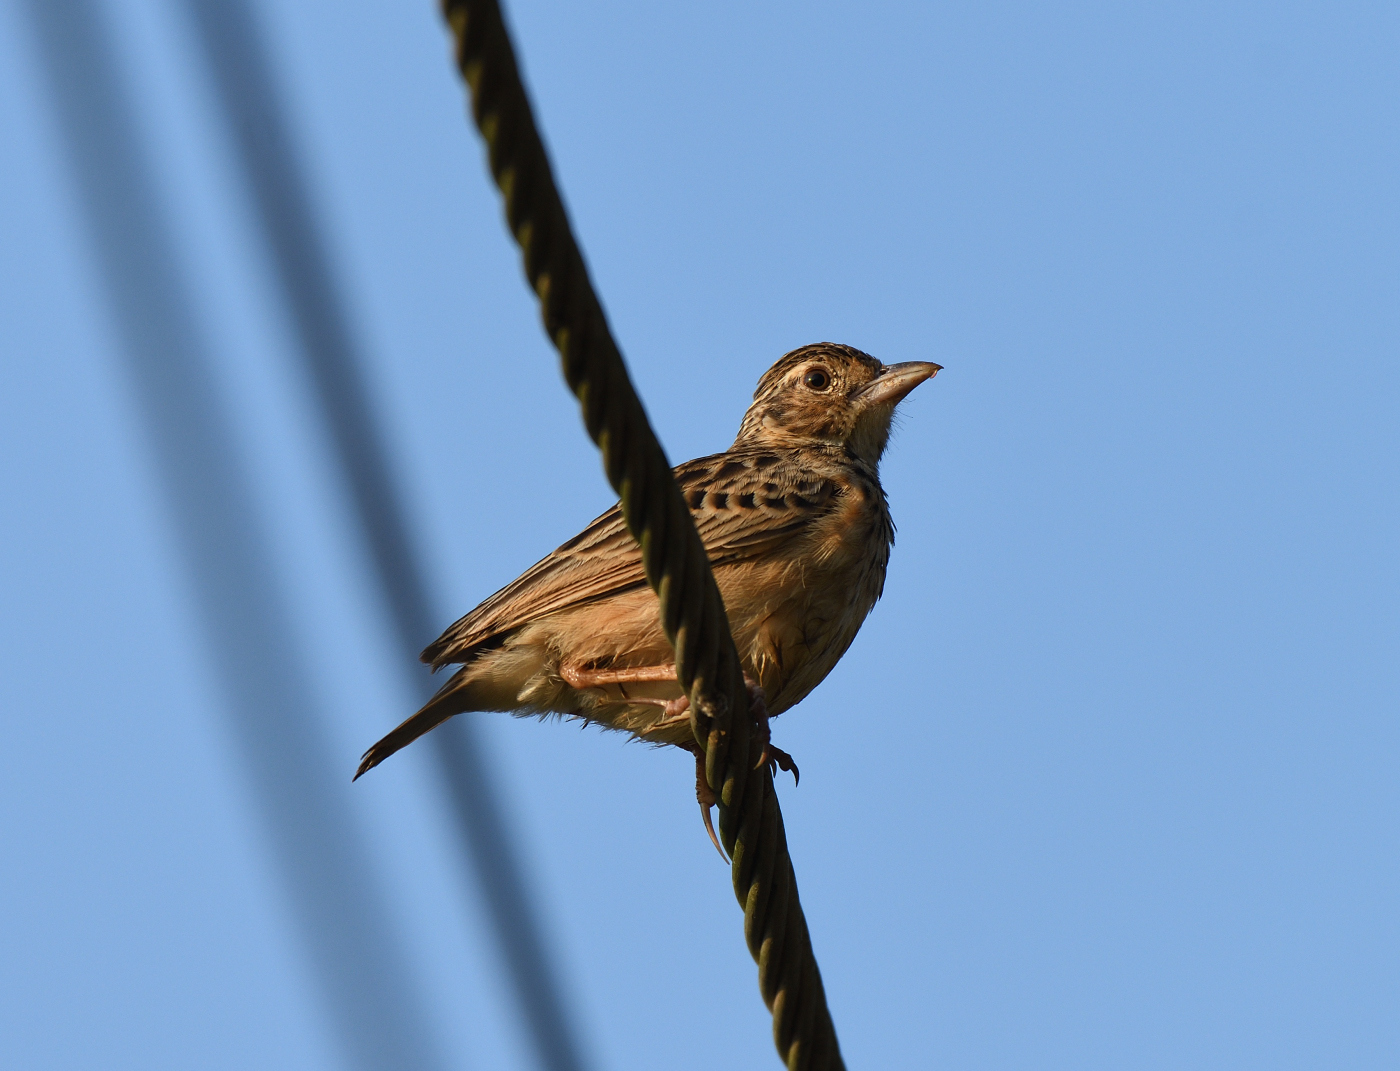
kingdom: Animalia
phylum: Chordata
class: Aves
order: Passeriformes
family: Alaudidae
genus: Mirafra
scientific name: Mirafra affinis
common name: Jerdon's bushlark
